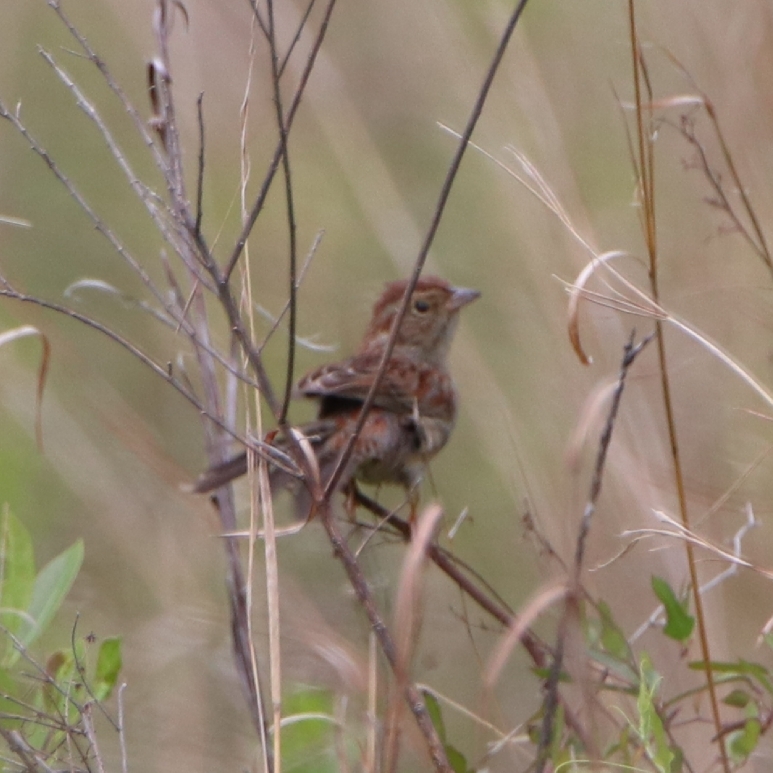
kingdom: Animalia
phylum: Chordata
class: Aves
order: Passeriformes
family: Passerellidae
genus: Peucaea
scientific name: Peucaea aestivalis
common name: Bachman's sparrow
